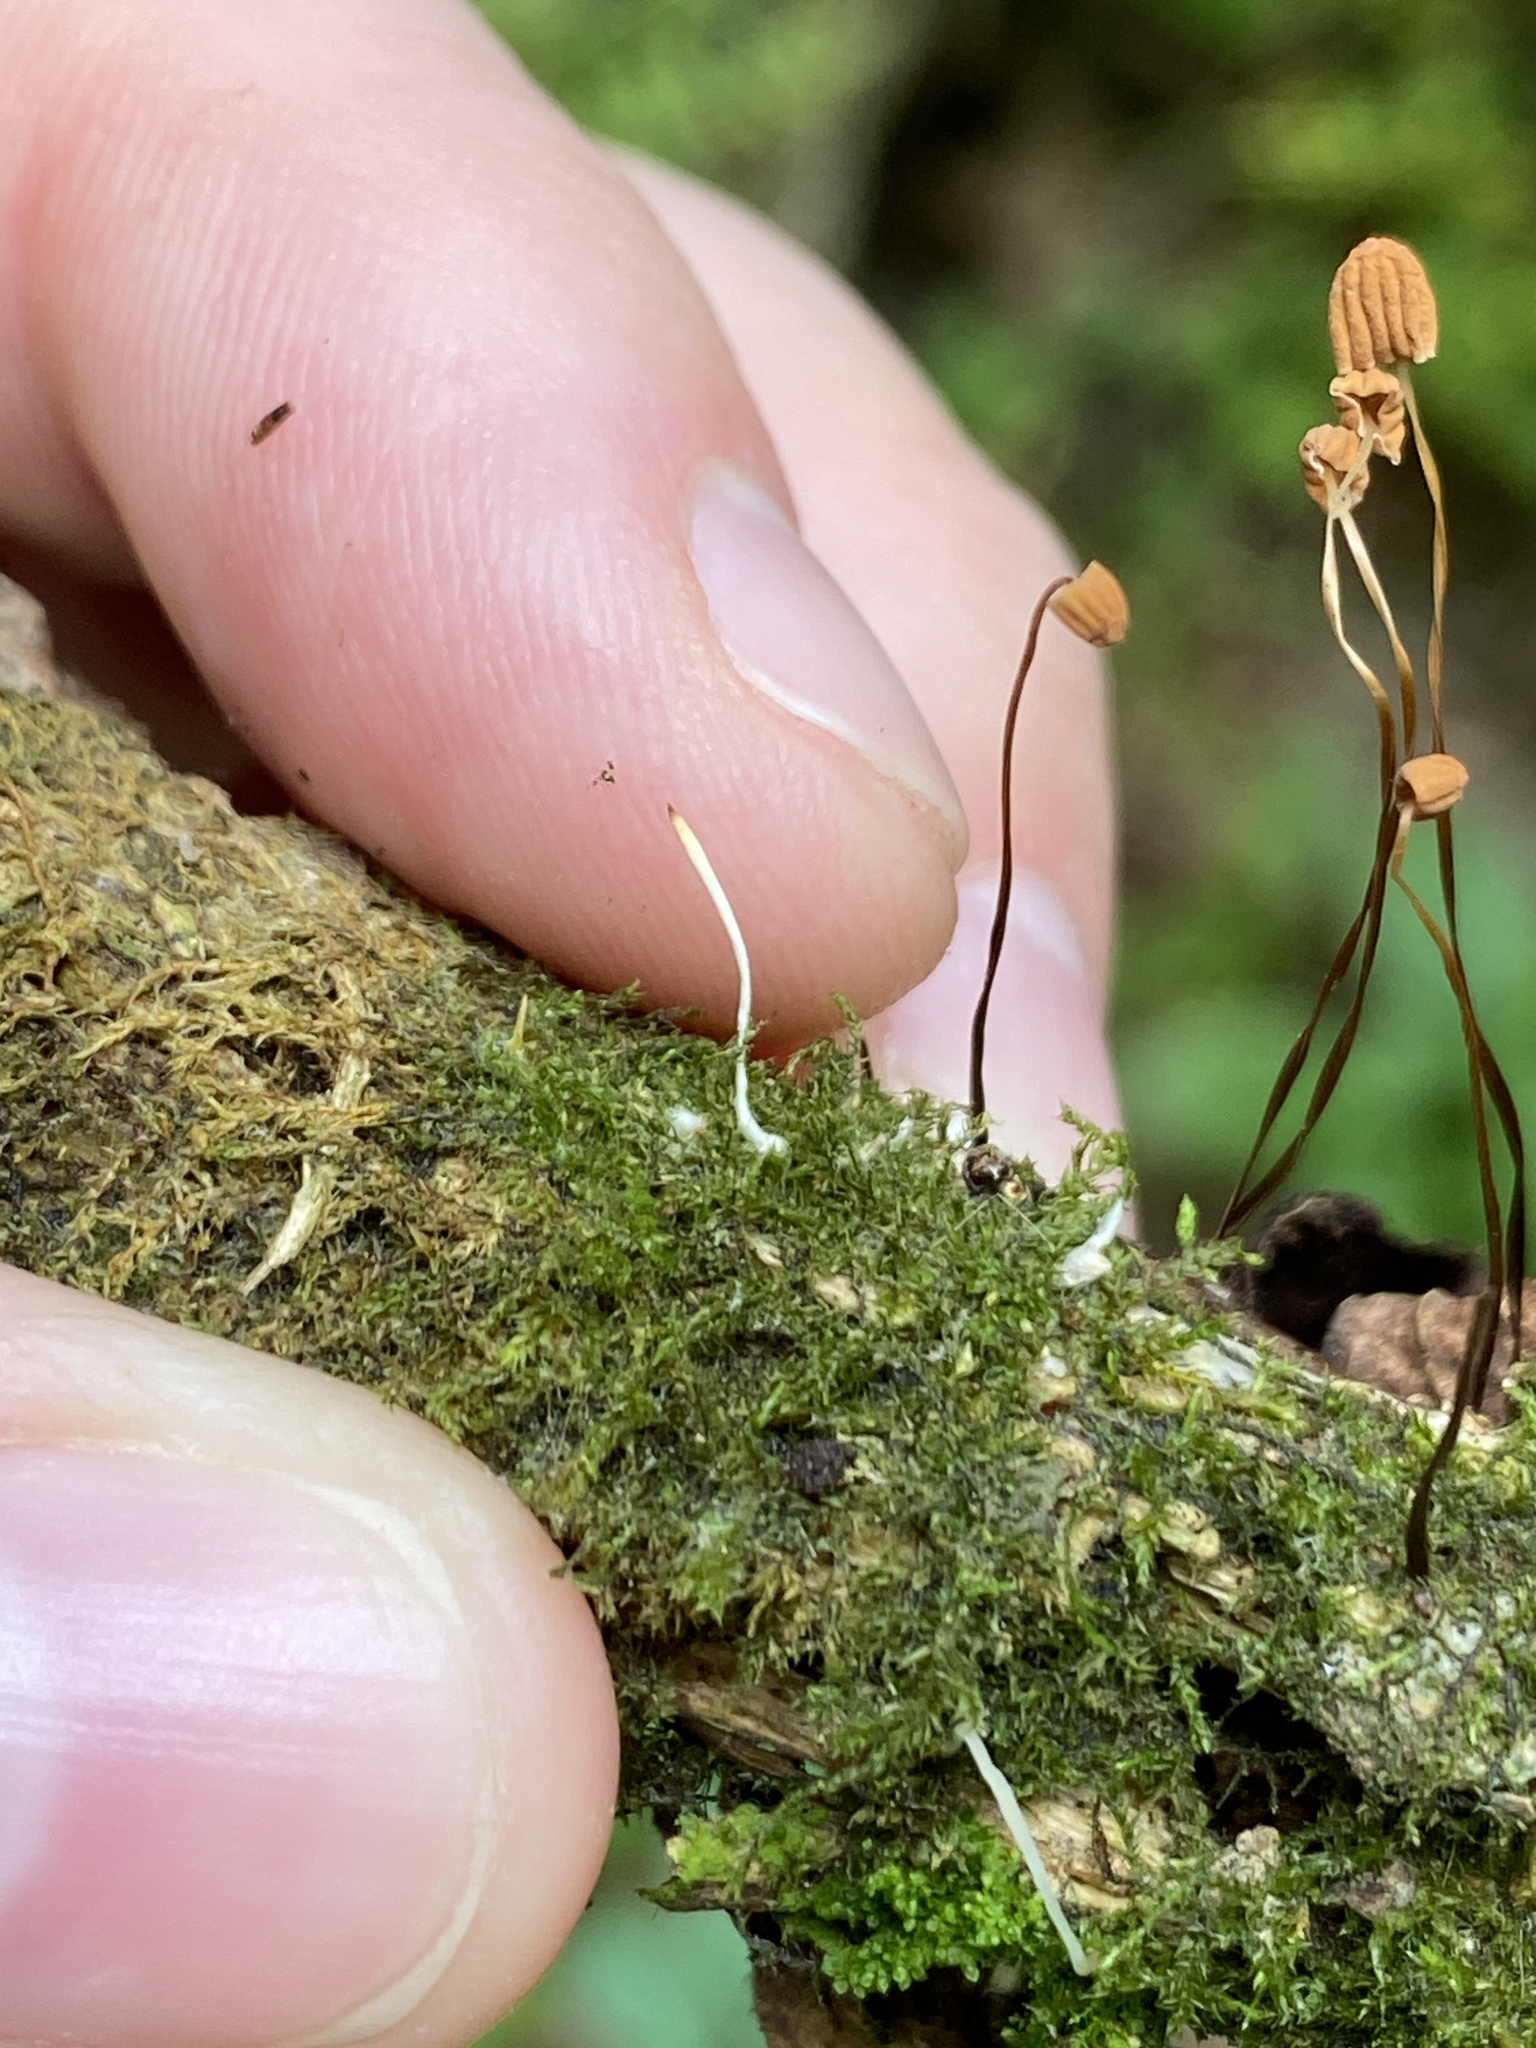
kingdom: Fungi
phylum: Basidiomycota
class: Pucciniomycetes
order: Platygloeales
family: Eocronartiaceae
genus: Eocronartium
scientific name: Eocronartium muscicola
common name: Moss rust
